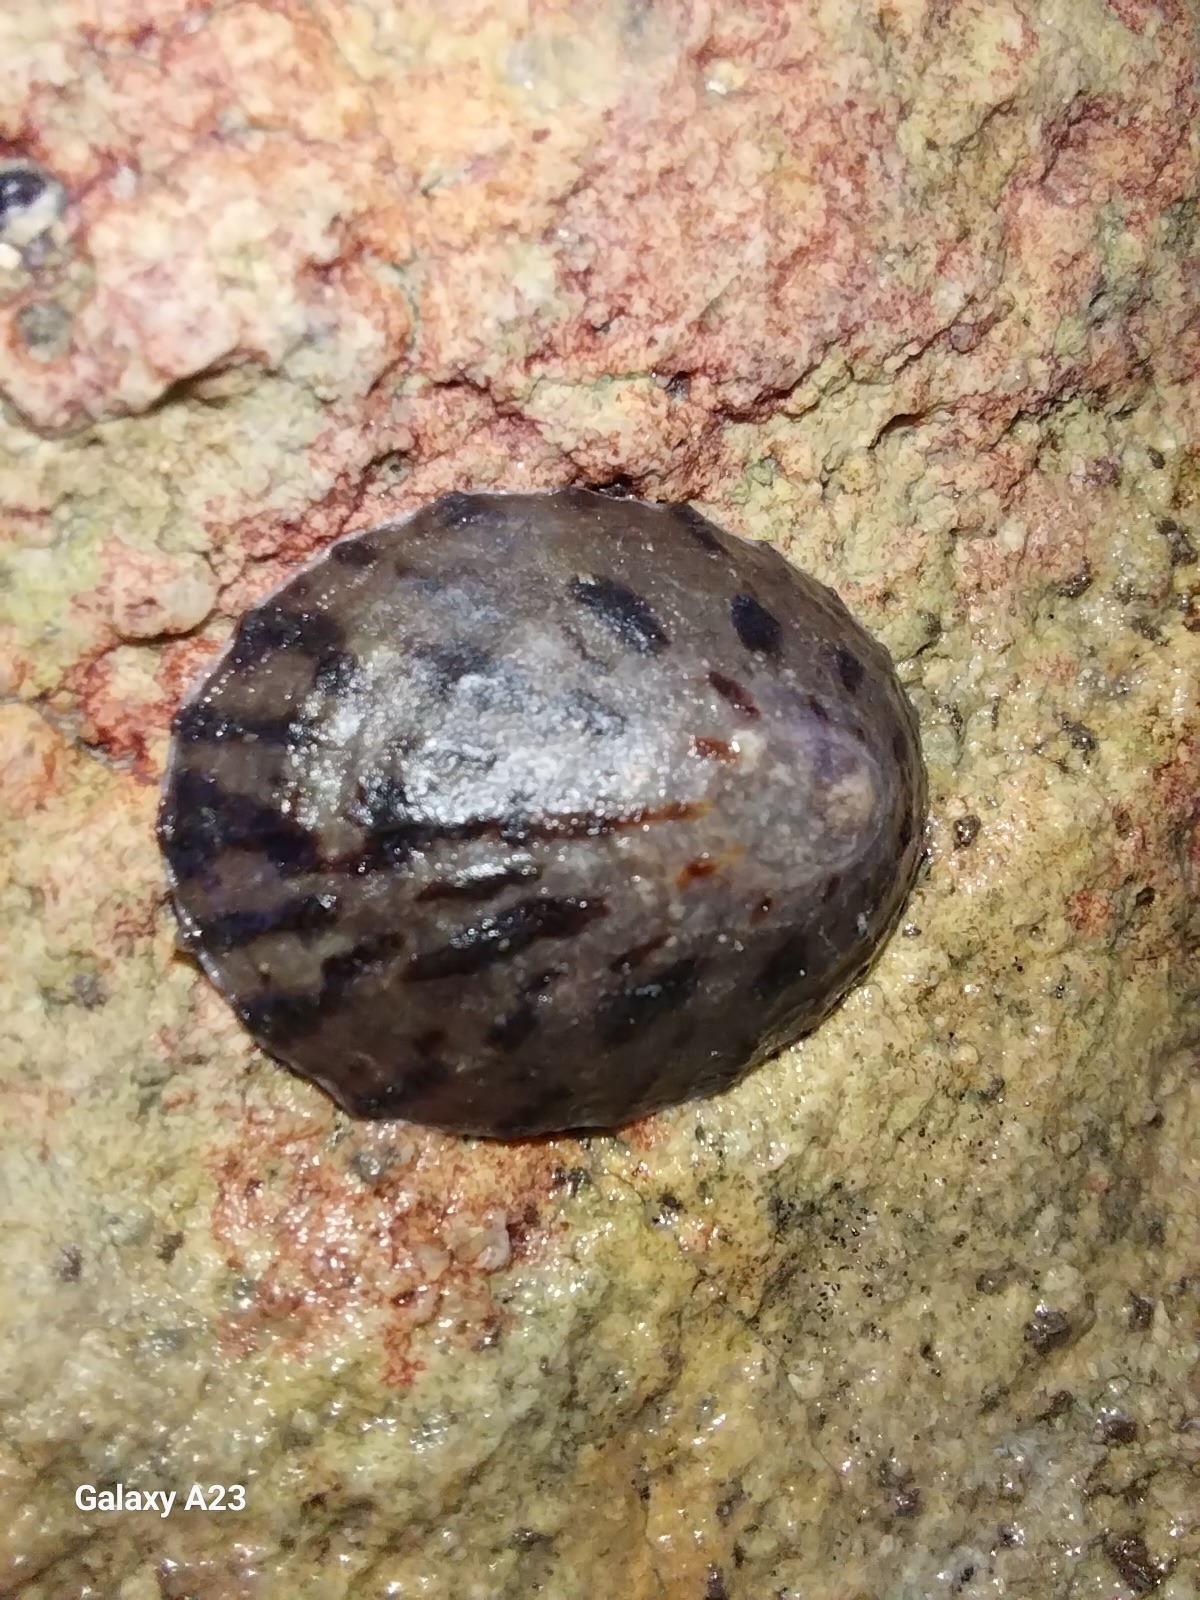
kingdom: Animalia
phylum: Mollusca
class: Gastropoda
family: Nacellidae
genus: Cellana
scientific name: Cellana radians
